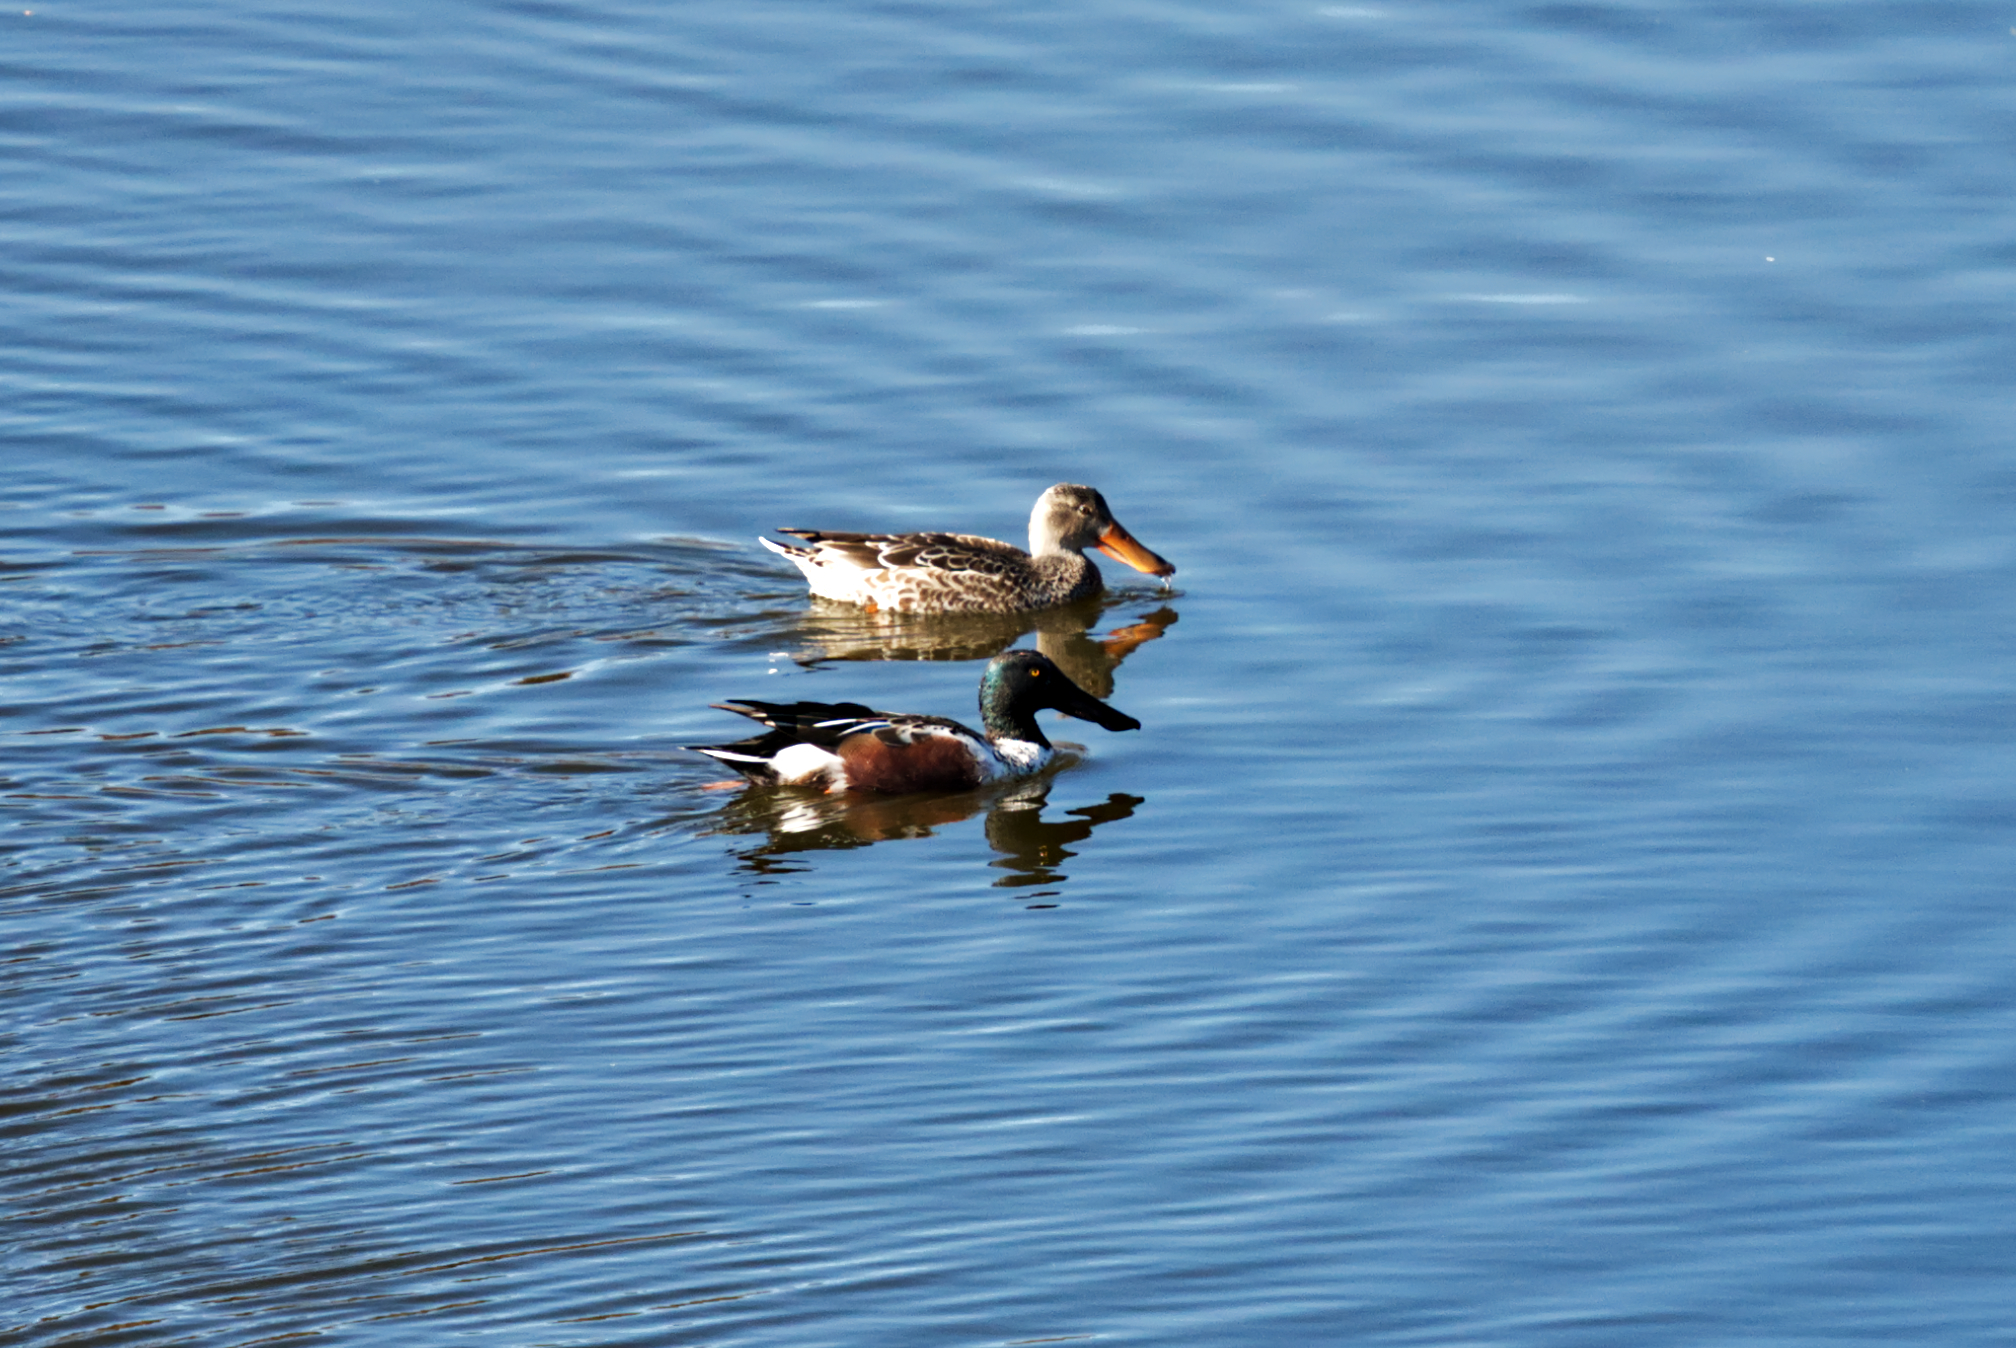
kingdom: Animalia
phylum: Chordata
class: Aves
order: Anseriformes
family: Anatidae
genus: Spatula
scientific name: Spatula clypeata
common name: Northern shoveler
